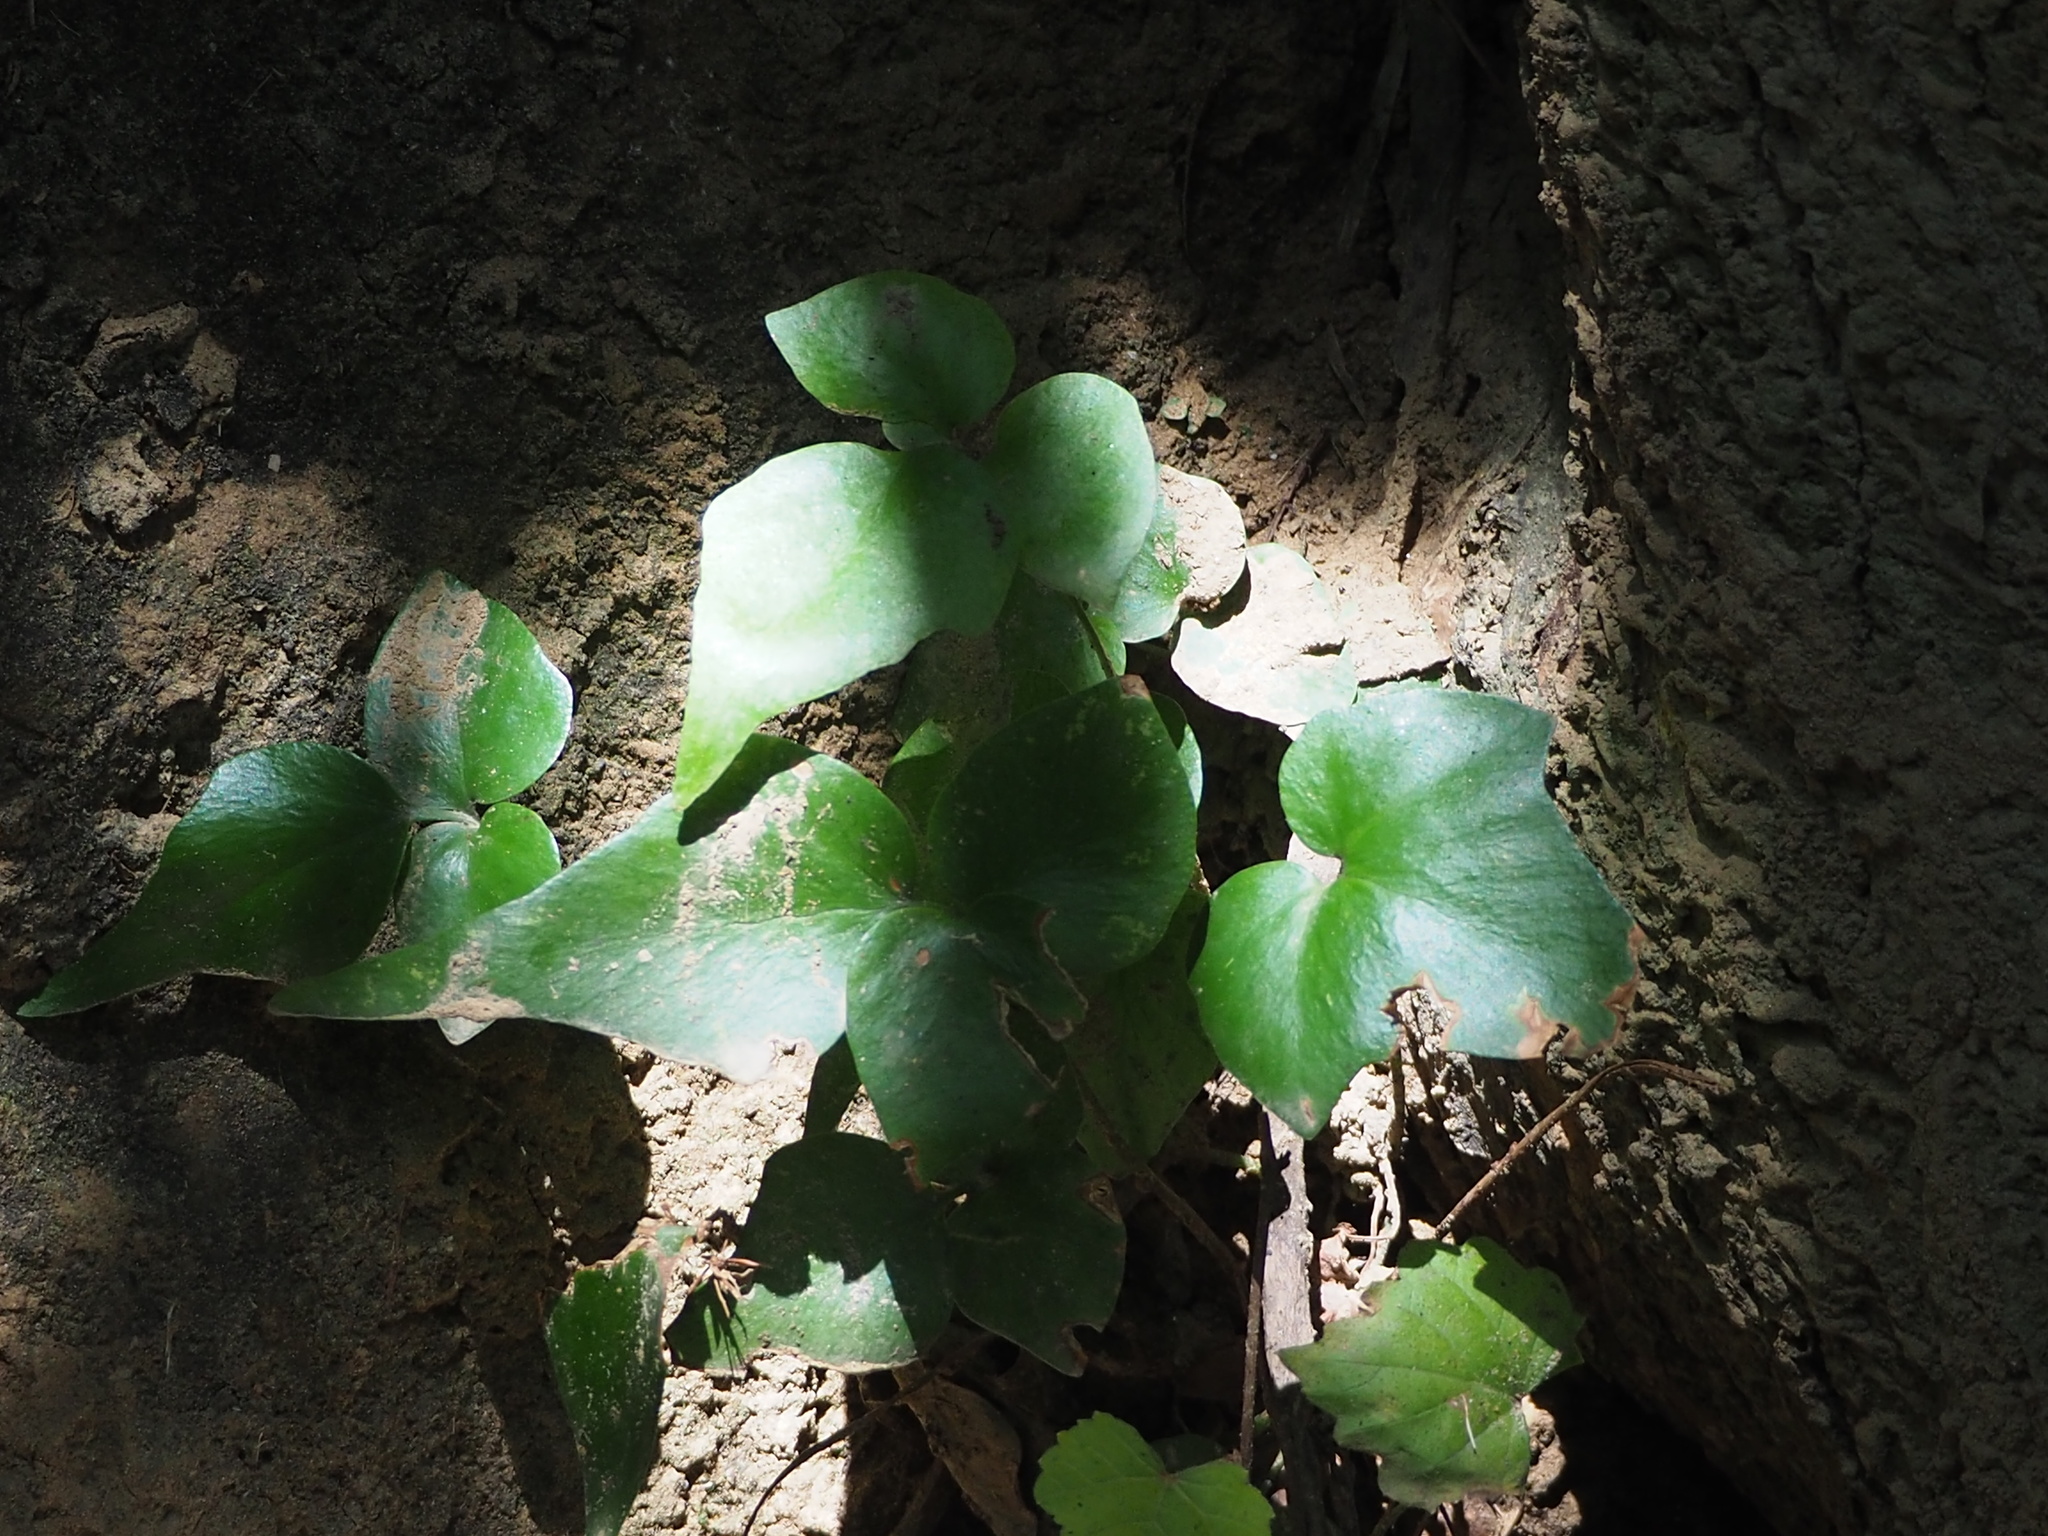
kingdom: Plantae
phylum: Tracheophyta
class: Polypodiopsida
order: Polypodiales
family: Dryopteridaceae
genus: Cyrtomium
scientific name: Cyrtomium falcatum
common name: House holly-fern
